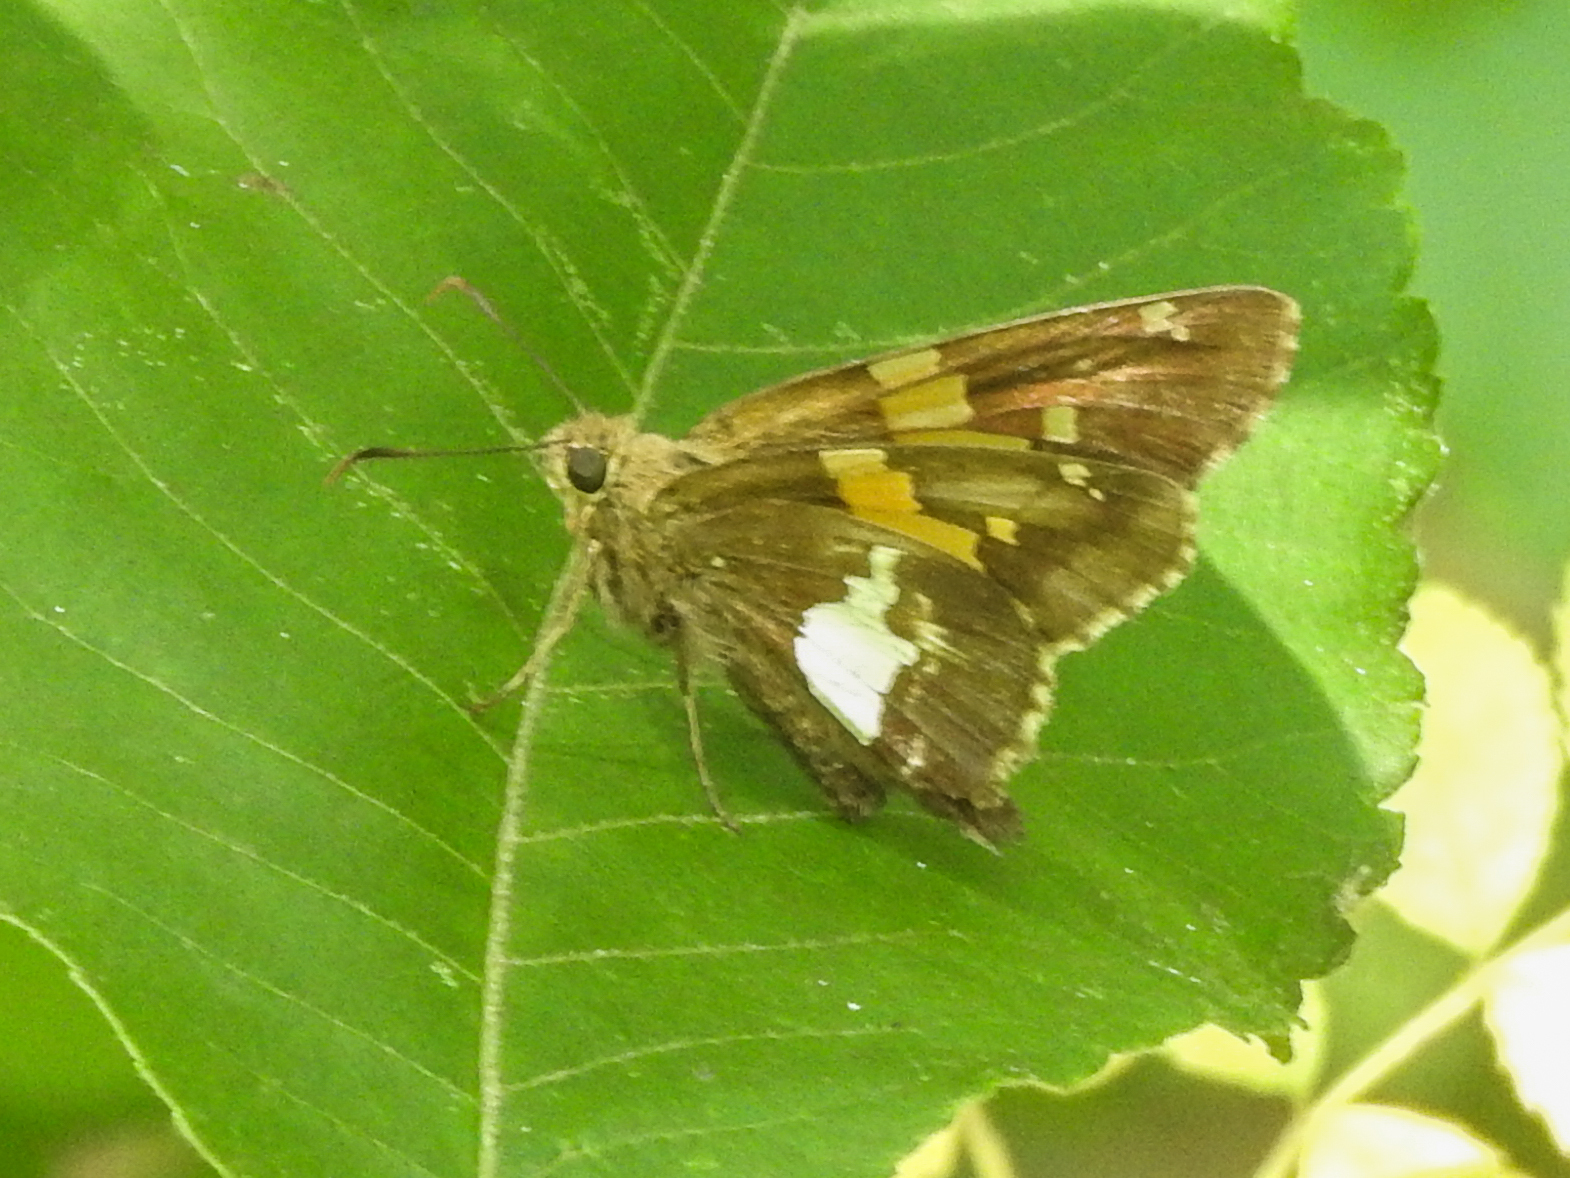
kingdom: Animalia
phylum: Arthropoda
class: Insecta
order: Lepidoptera
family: Hesperiidae
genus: Epargyreus
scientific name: Epargyreus clarus
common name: Silver-spotted skipper
